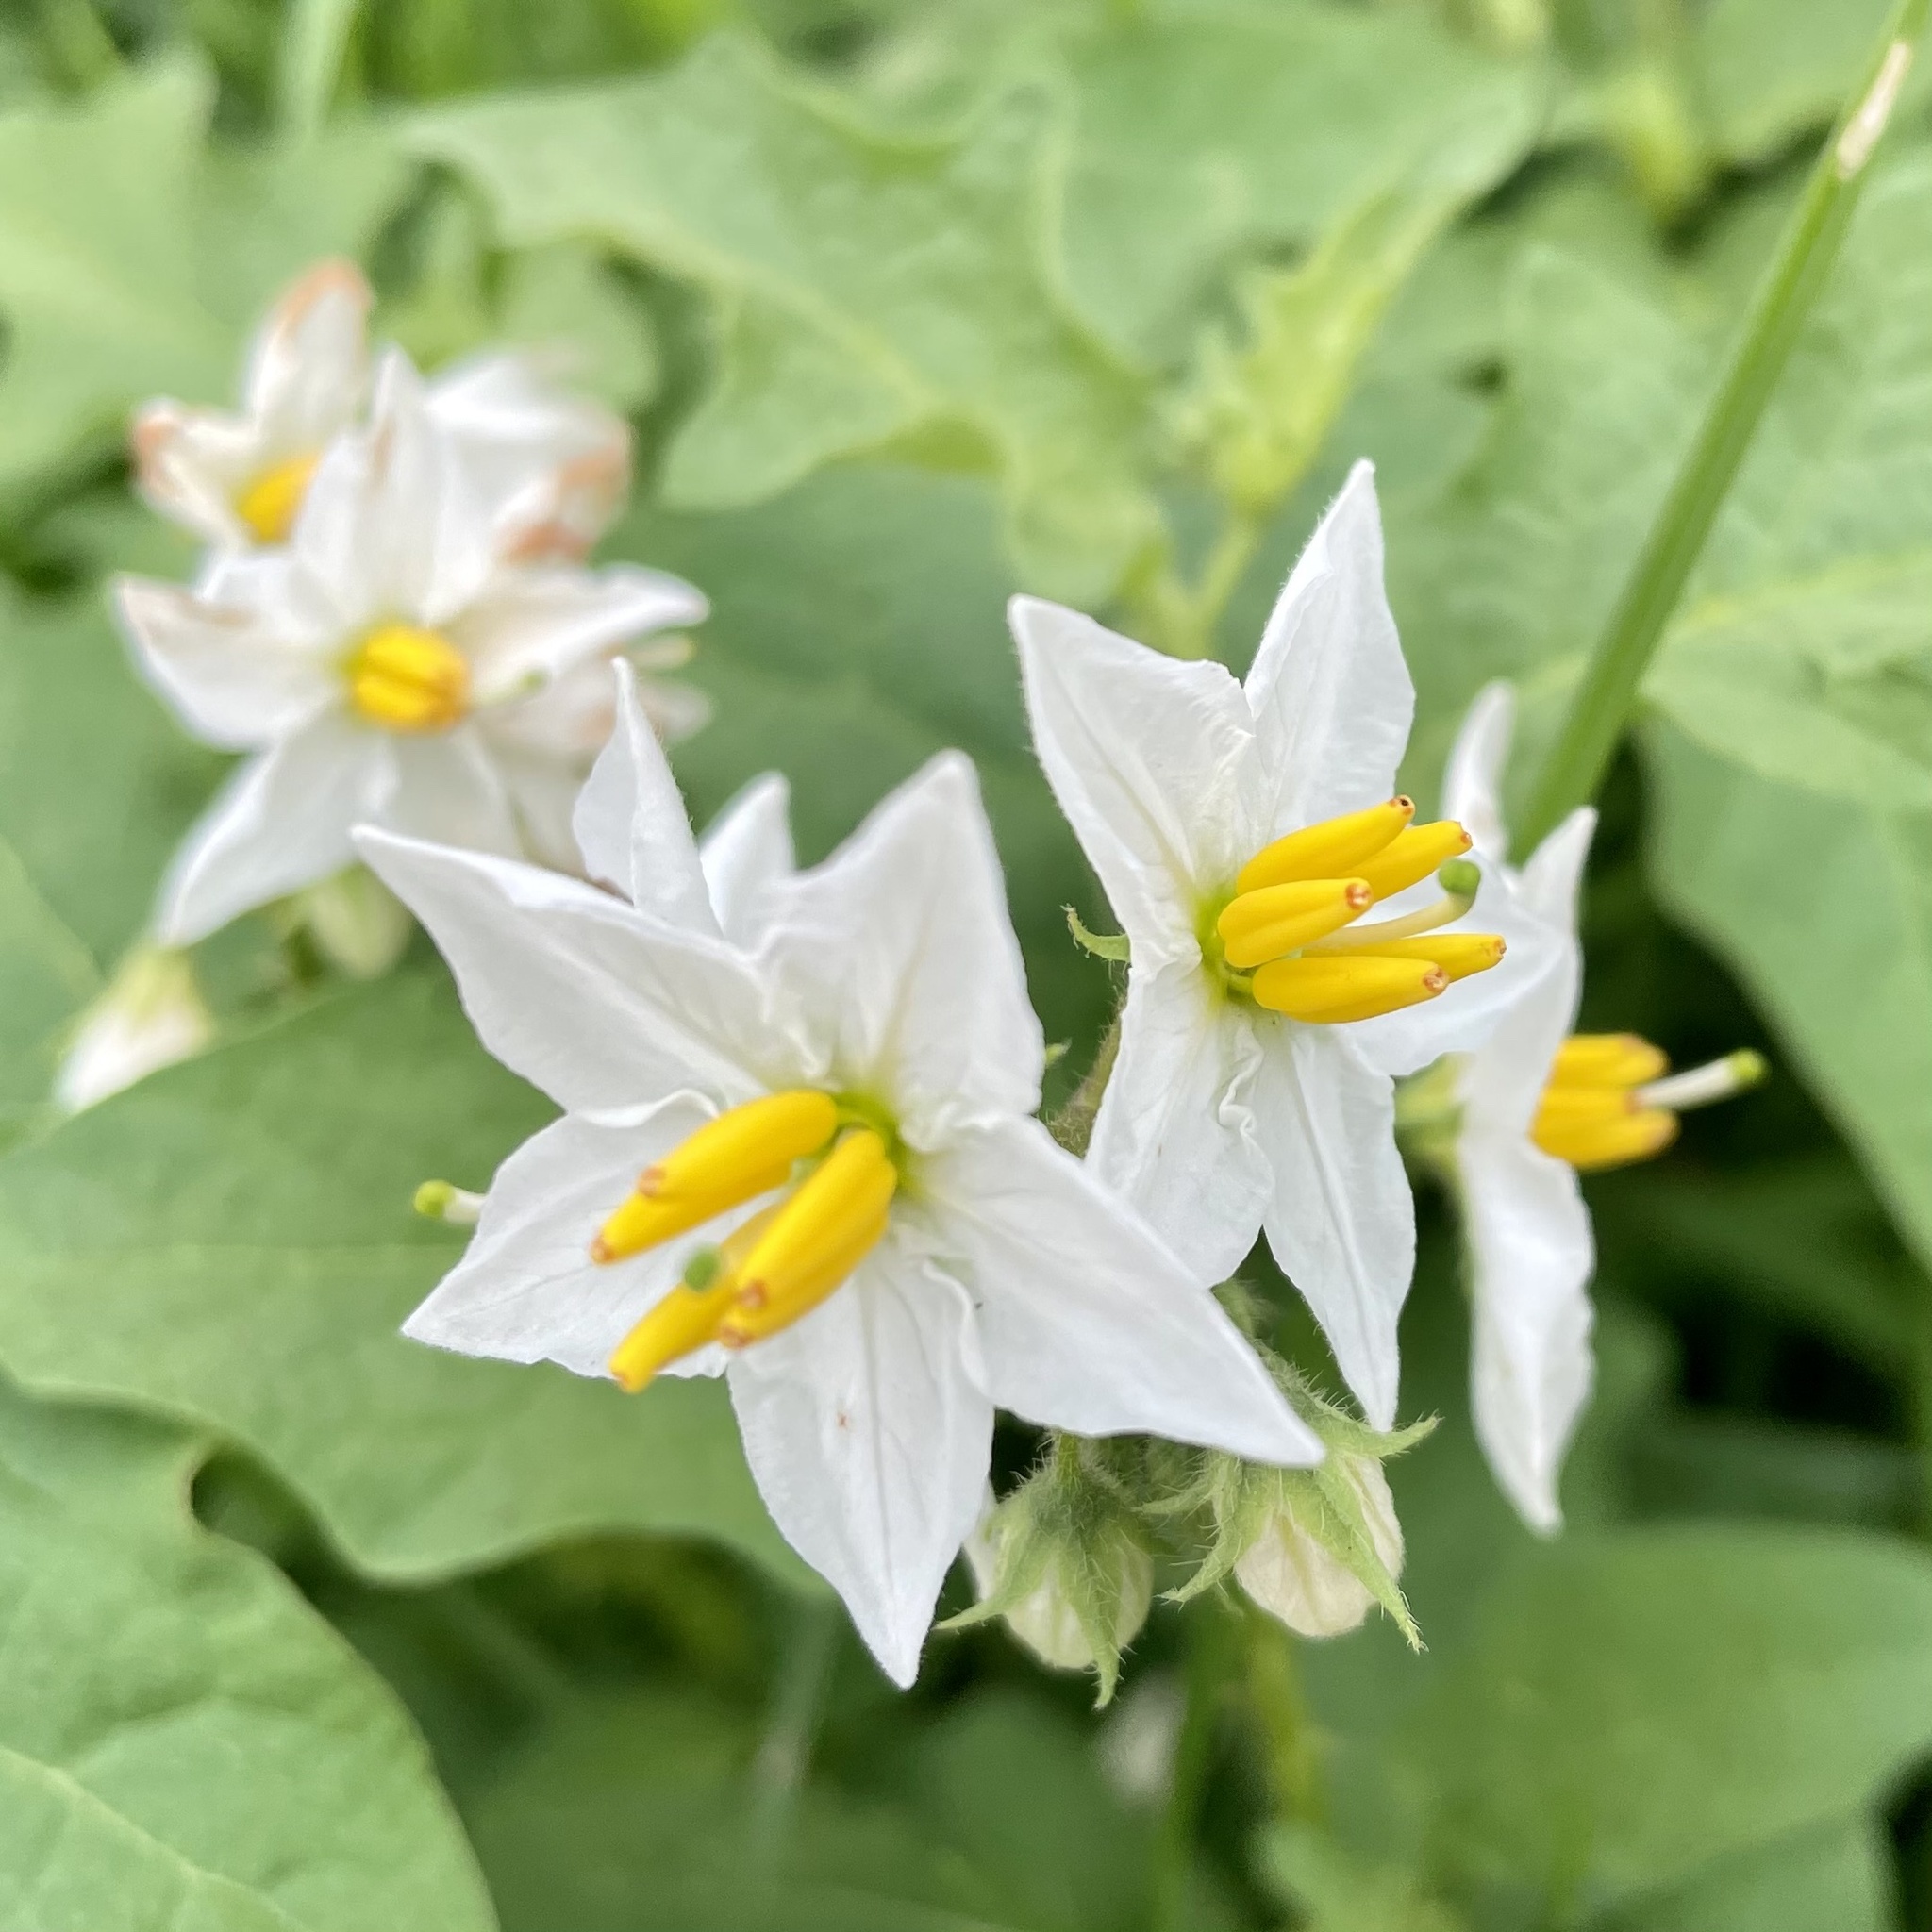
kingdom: Plantae
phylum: Tracheophyta
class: Magnoliopsida
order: Solanales
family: Solanaceae
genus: Solanum
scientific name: Solanum carolinense
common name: Horse-nettle
